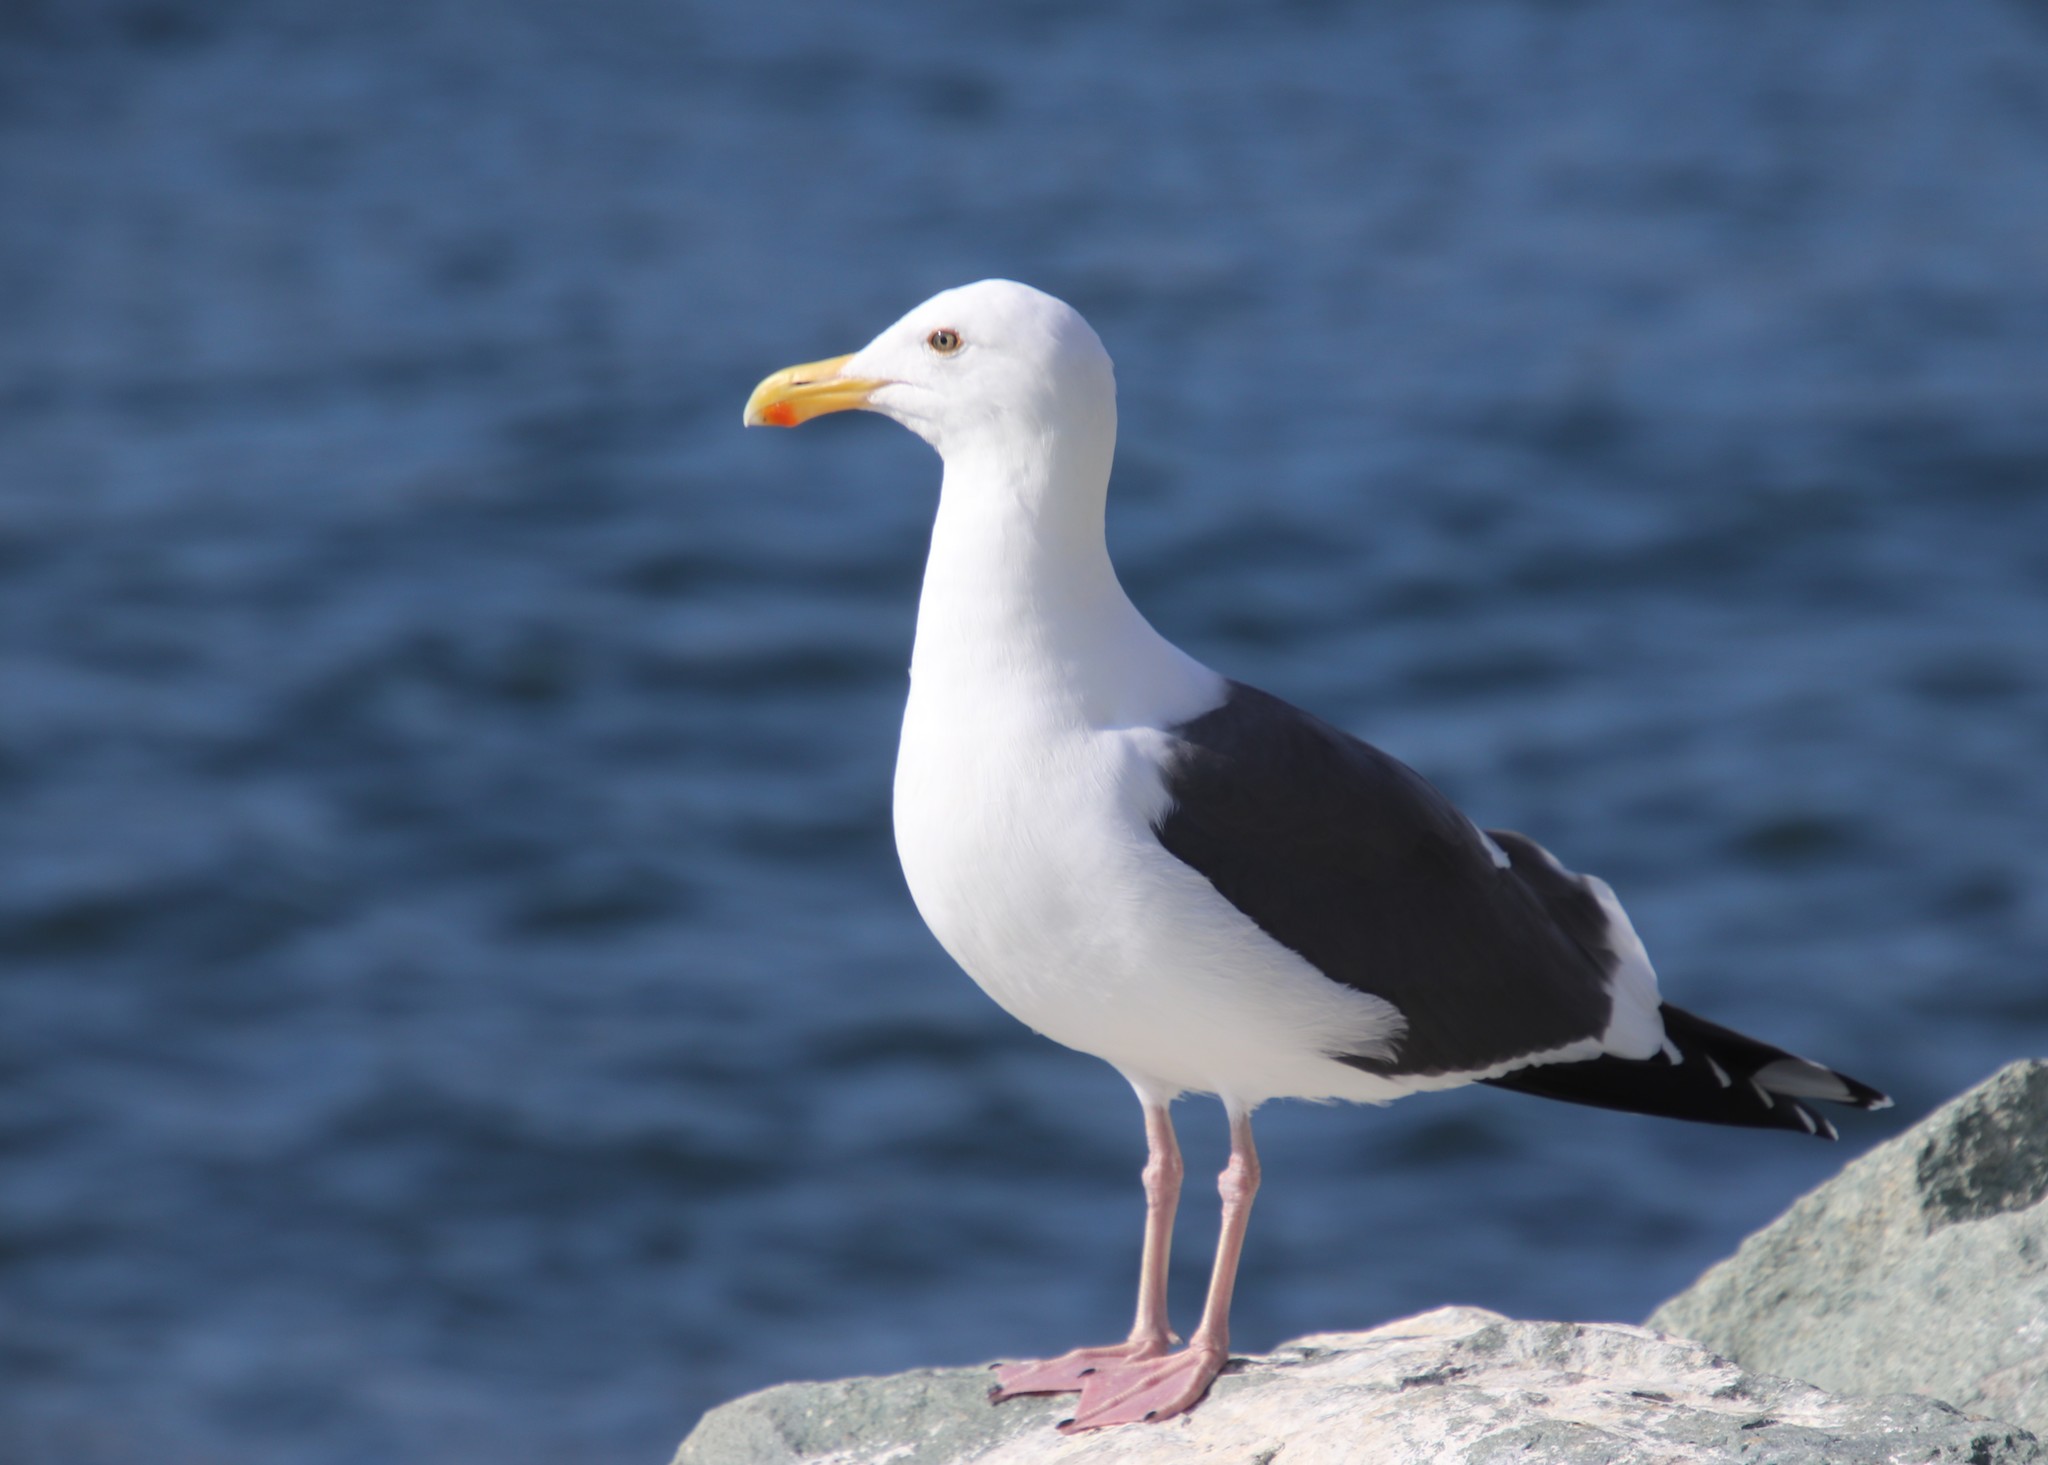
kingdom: Animalia
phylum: Chordata
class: Aves
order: Charadriiformes
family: Laridae
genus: Larus
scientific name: Larus occidentalis
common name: Western gull
